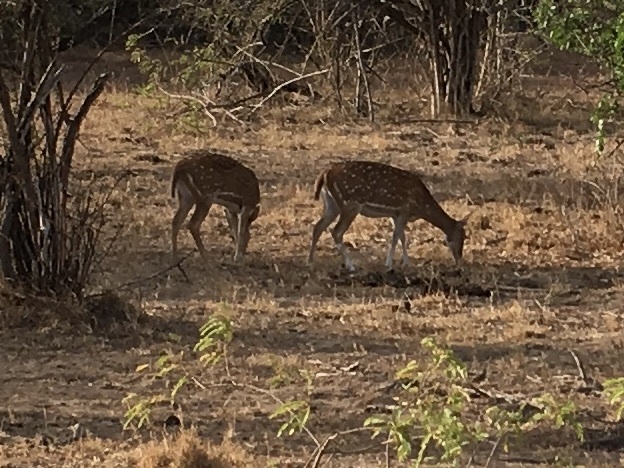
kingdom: Animalia
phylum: Chordata
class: Mammalia
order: Artiodactyla
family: Cervidae
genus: Axis
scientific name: Axis axis
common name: Chital
